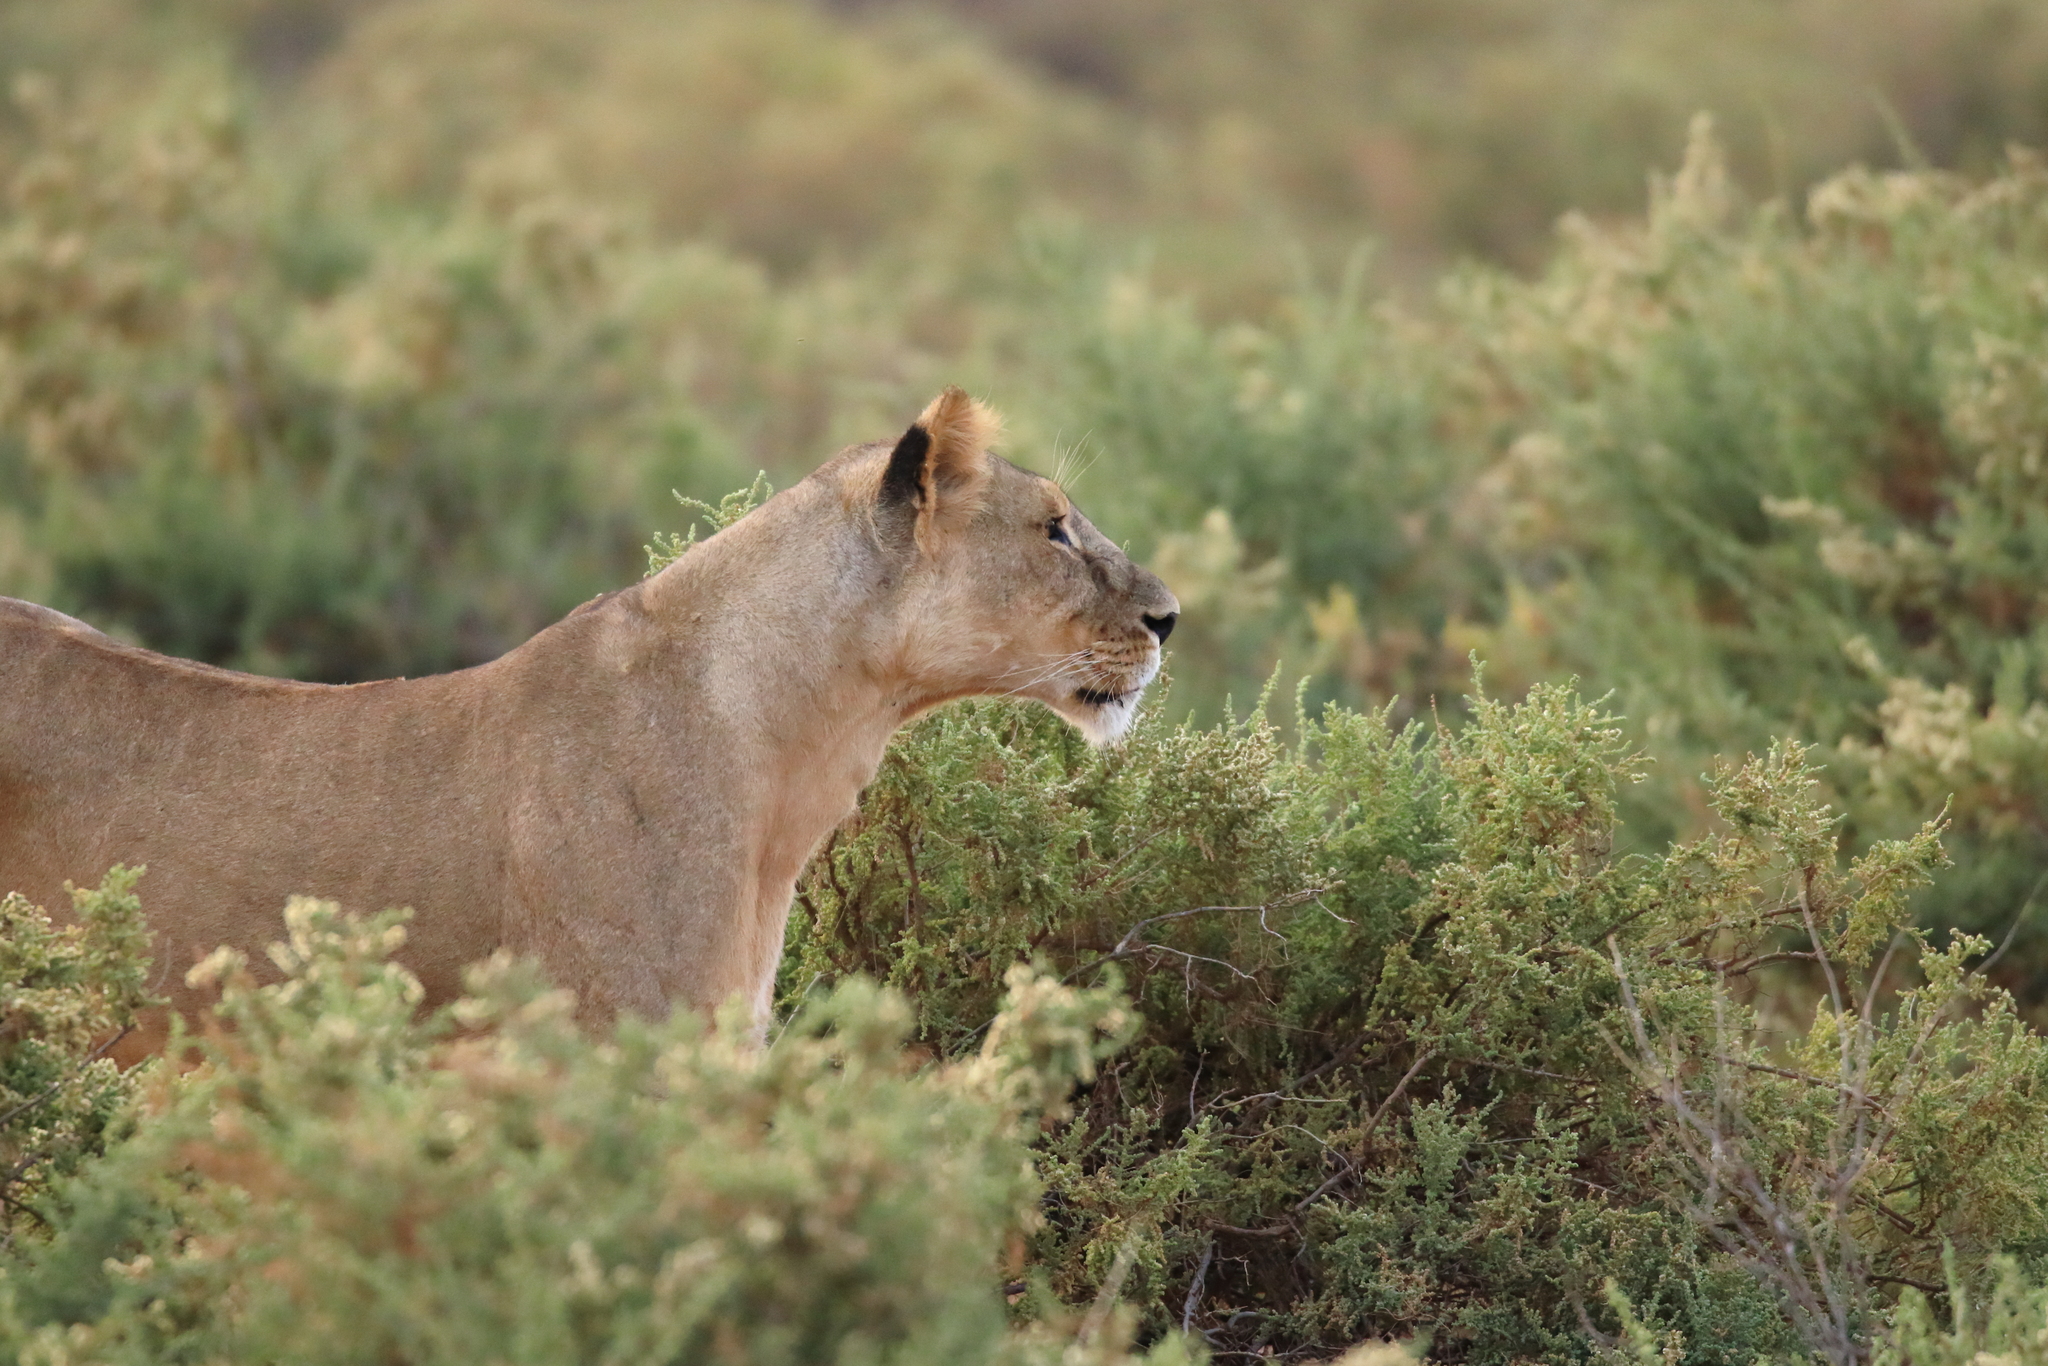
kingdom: Animalia
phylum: Chordata
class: Mammalia
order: Carnivora
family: Felidae
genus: Panthera
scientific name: Panthera leo
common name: Lion
